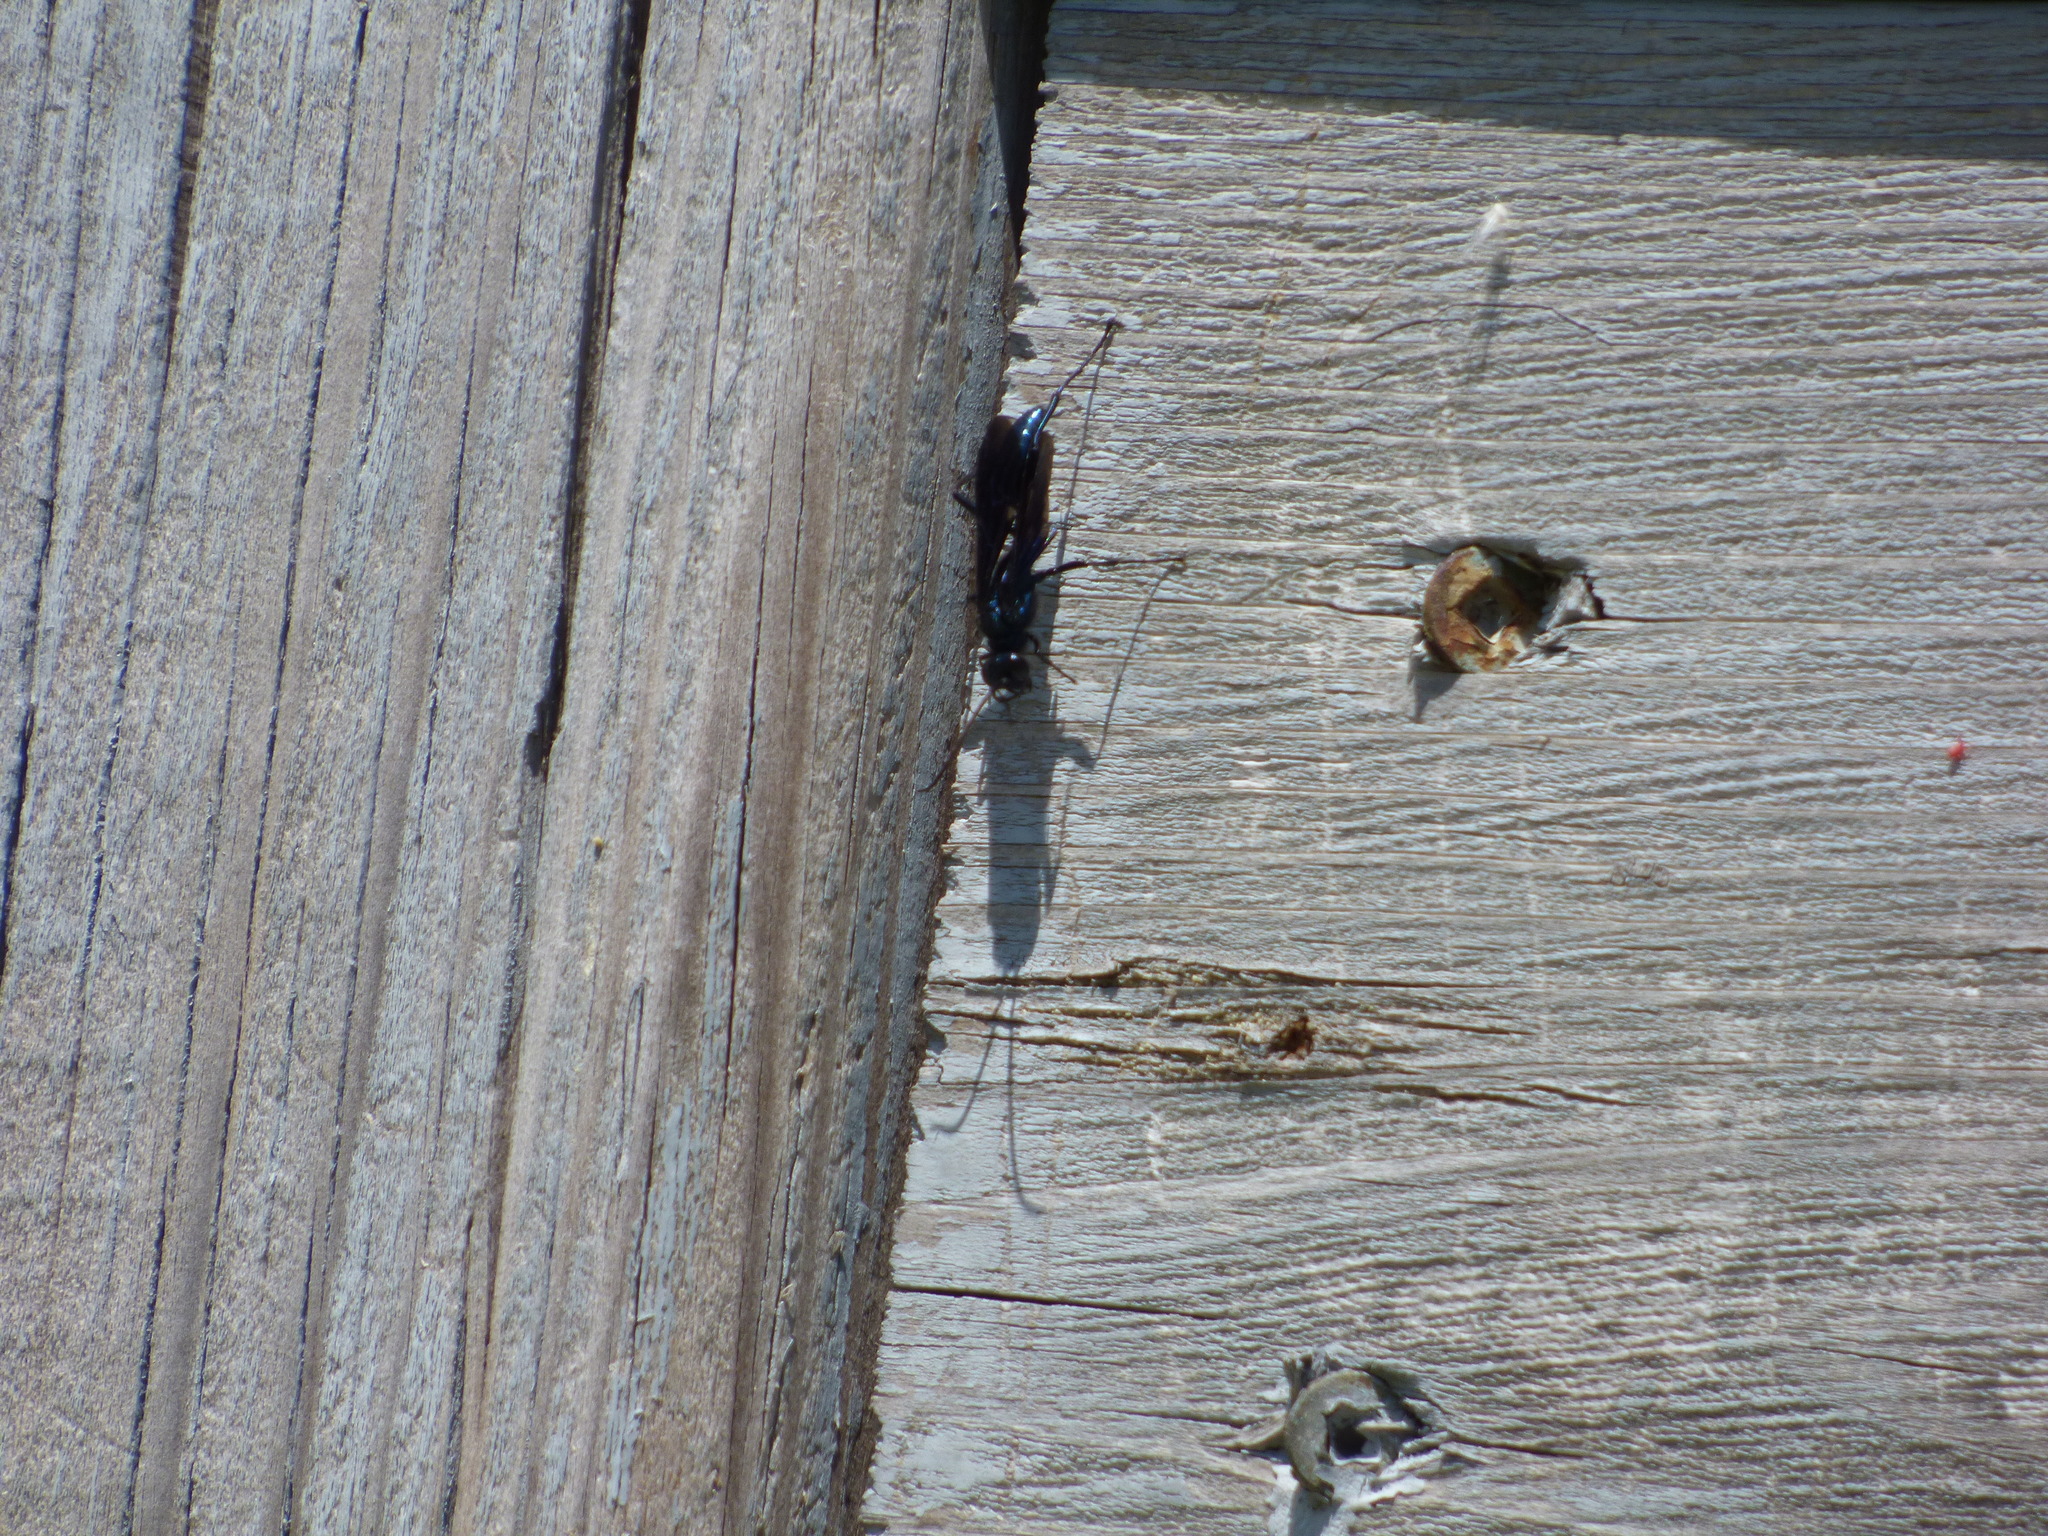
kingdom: Animalia
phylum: Arthropoda
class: Insecta
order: Hymenoptera
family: Sphecidae
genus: Chalybion
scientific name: Chalybion californicum
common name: Mud dauber
